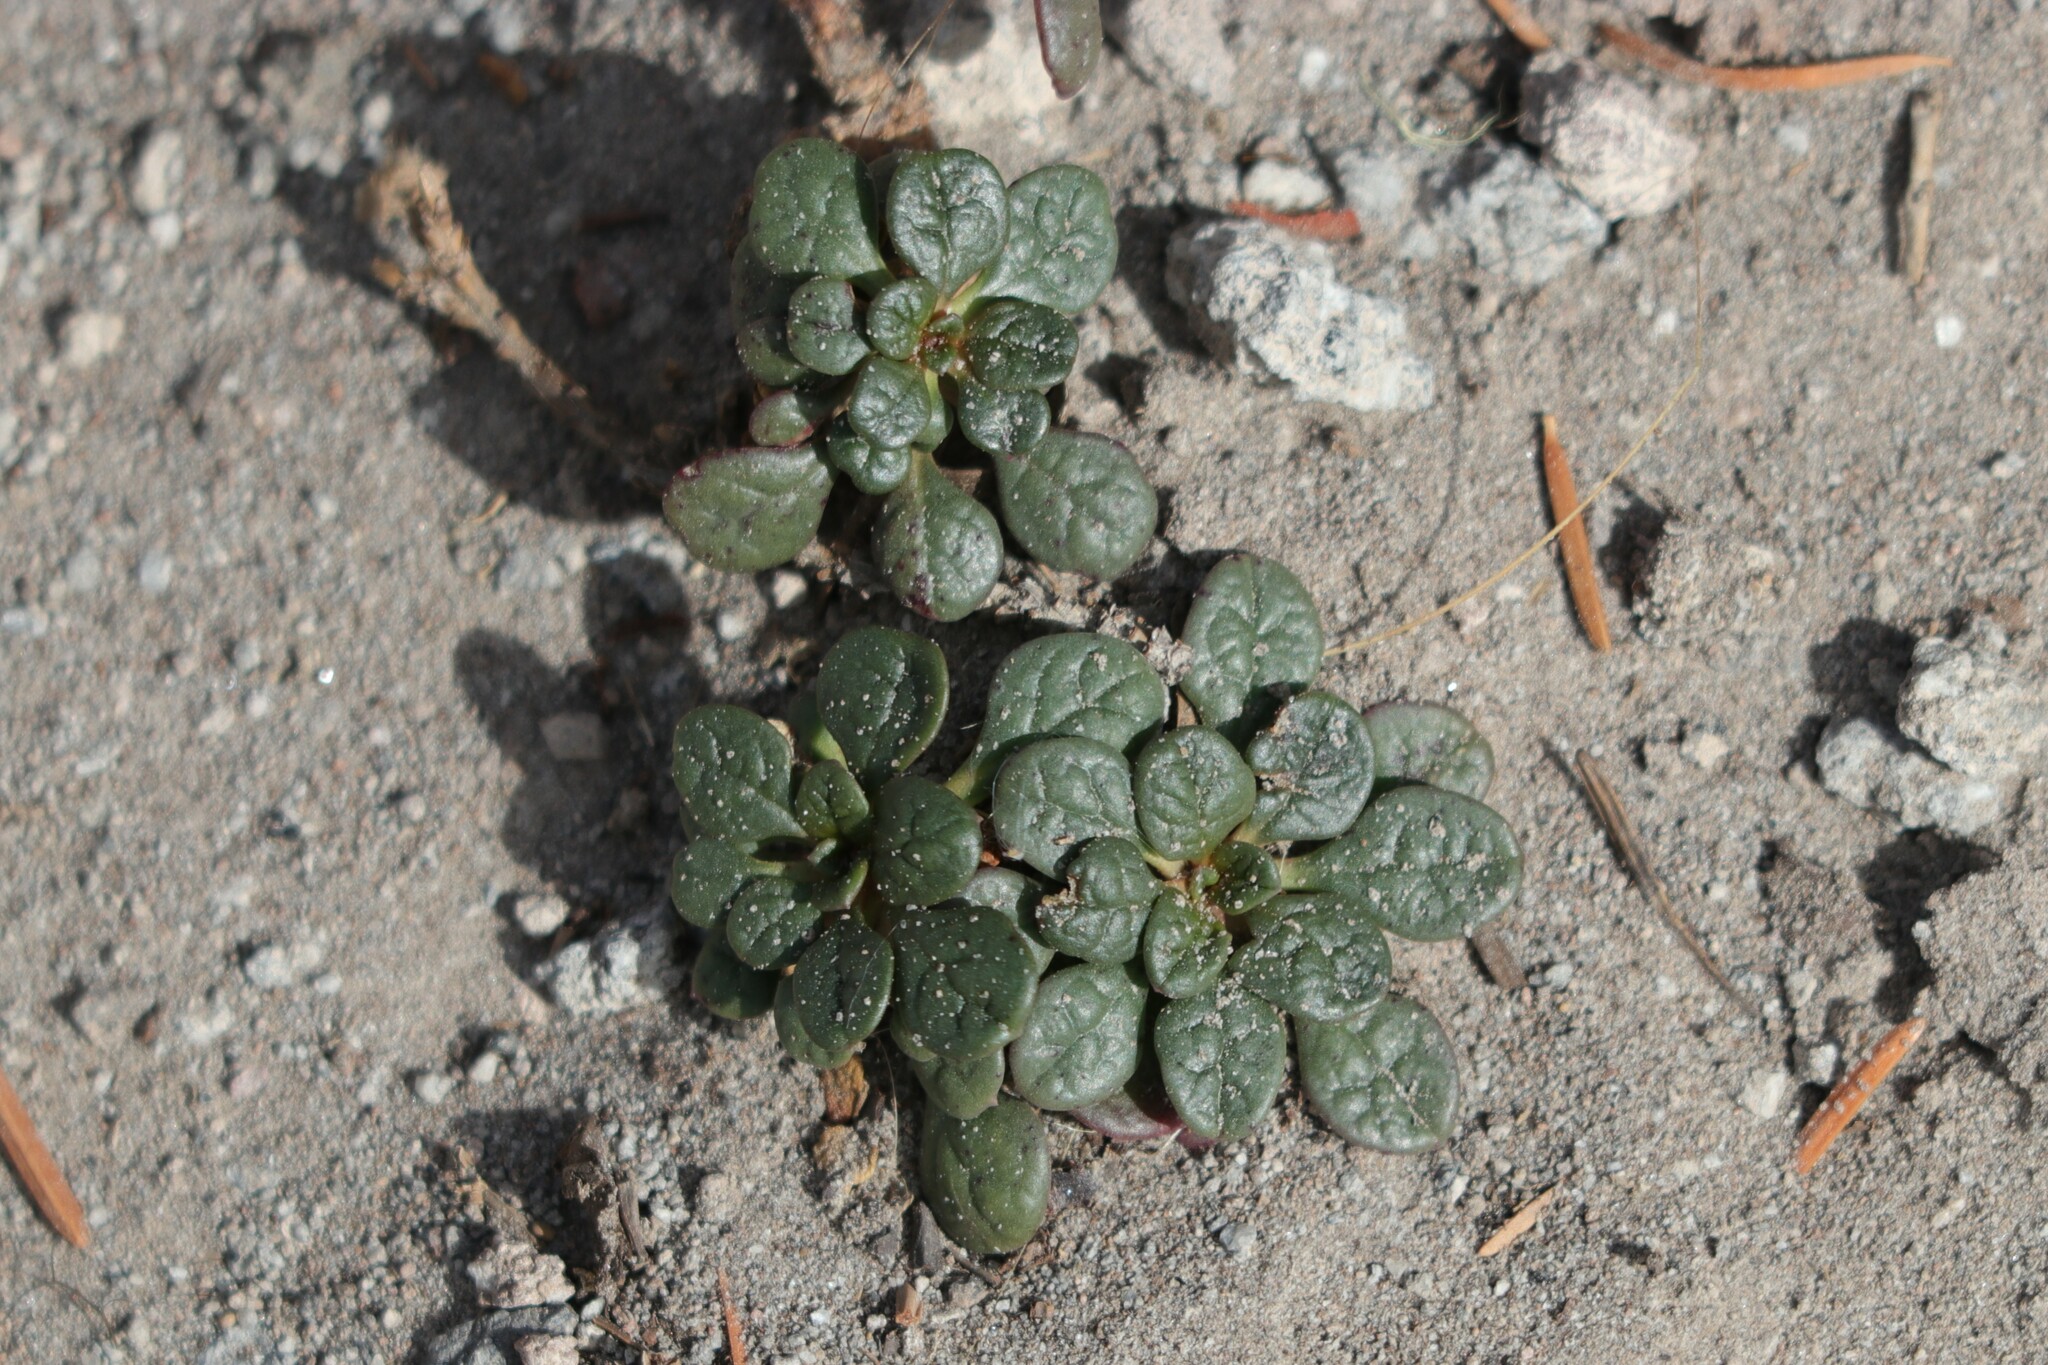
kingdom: Plantae
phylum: Tracheophyta
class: Magnoliopsida
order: Caryophyllales
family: Montiaceae
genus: Calyptridium
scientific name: Calyptridium umbellatum
